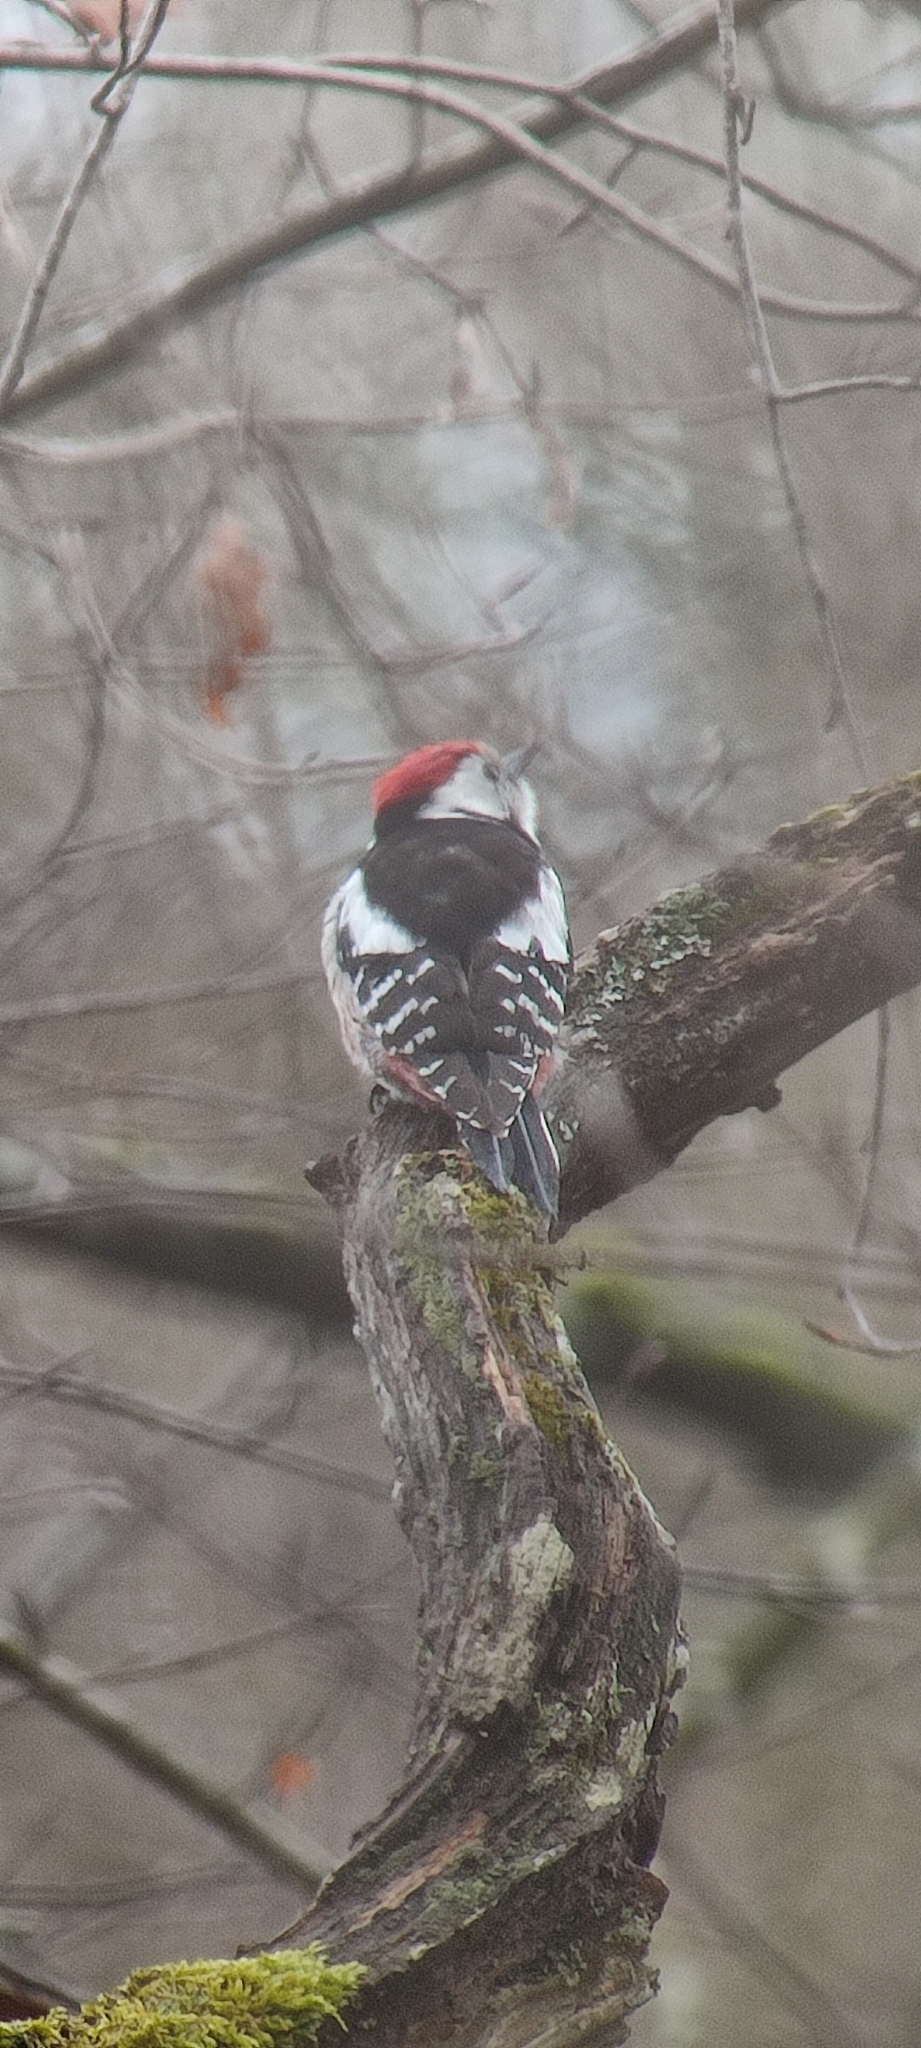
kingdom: Animalia
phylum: Chordata
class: Aves
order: Piciformes
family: Picidae
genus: Dendrocoptes
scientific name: Dendrocoptes medius
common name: Middle spotted woodpecker
